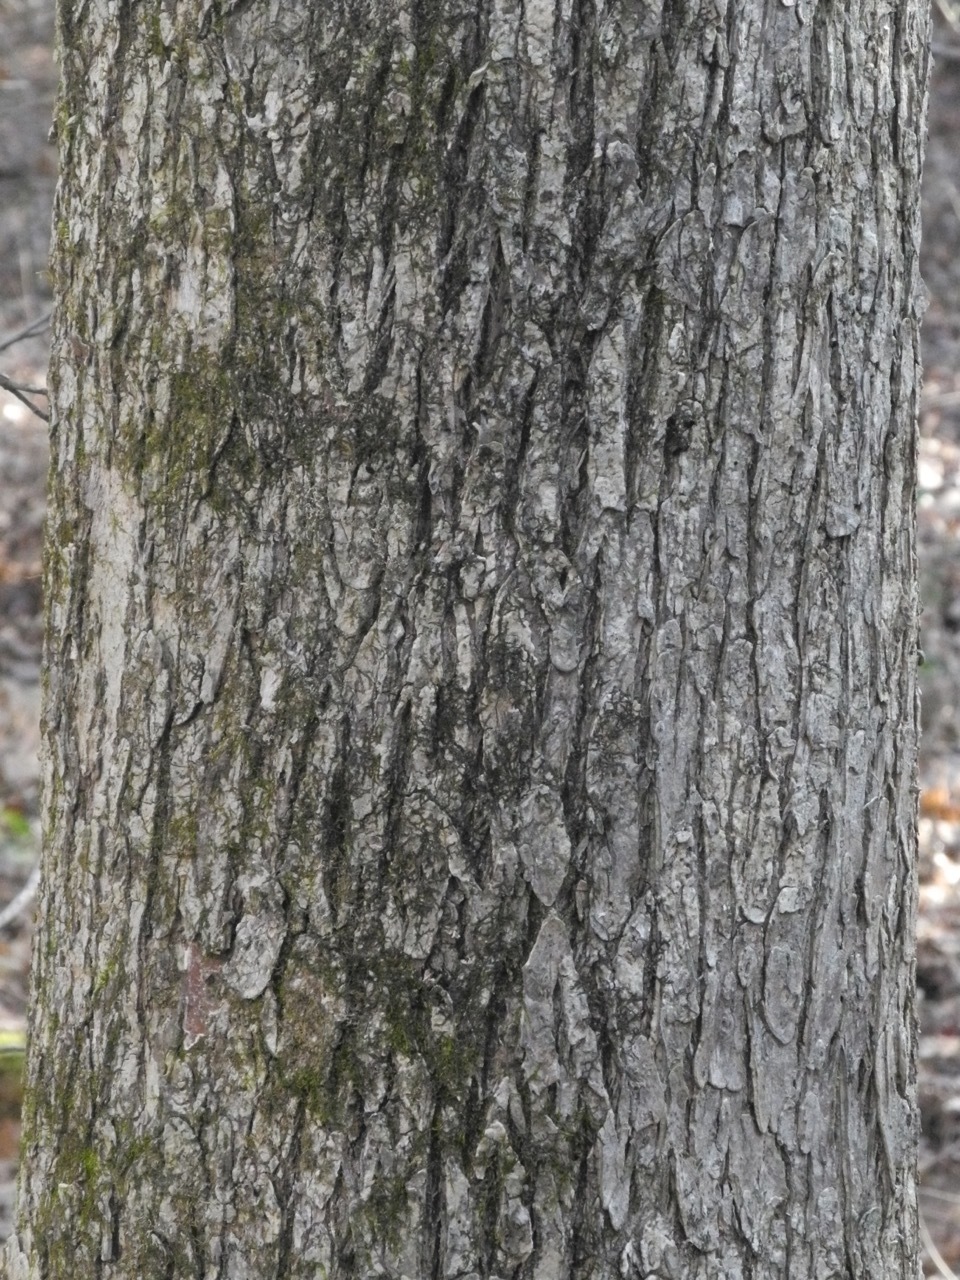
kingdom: Plantae
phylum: Tracheophyta
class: Magnoliopsida
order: Rosales
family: Ulmaceae
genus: Ulmus
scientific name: Ulmus rubra
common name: Slippery elm
